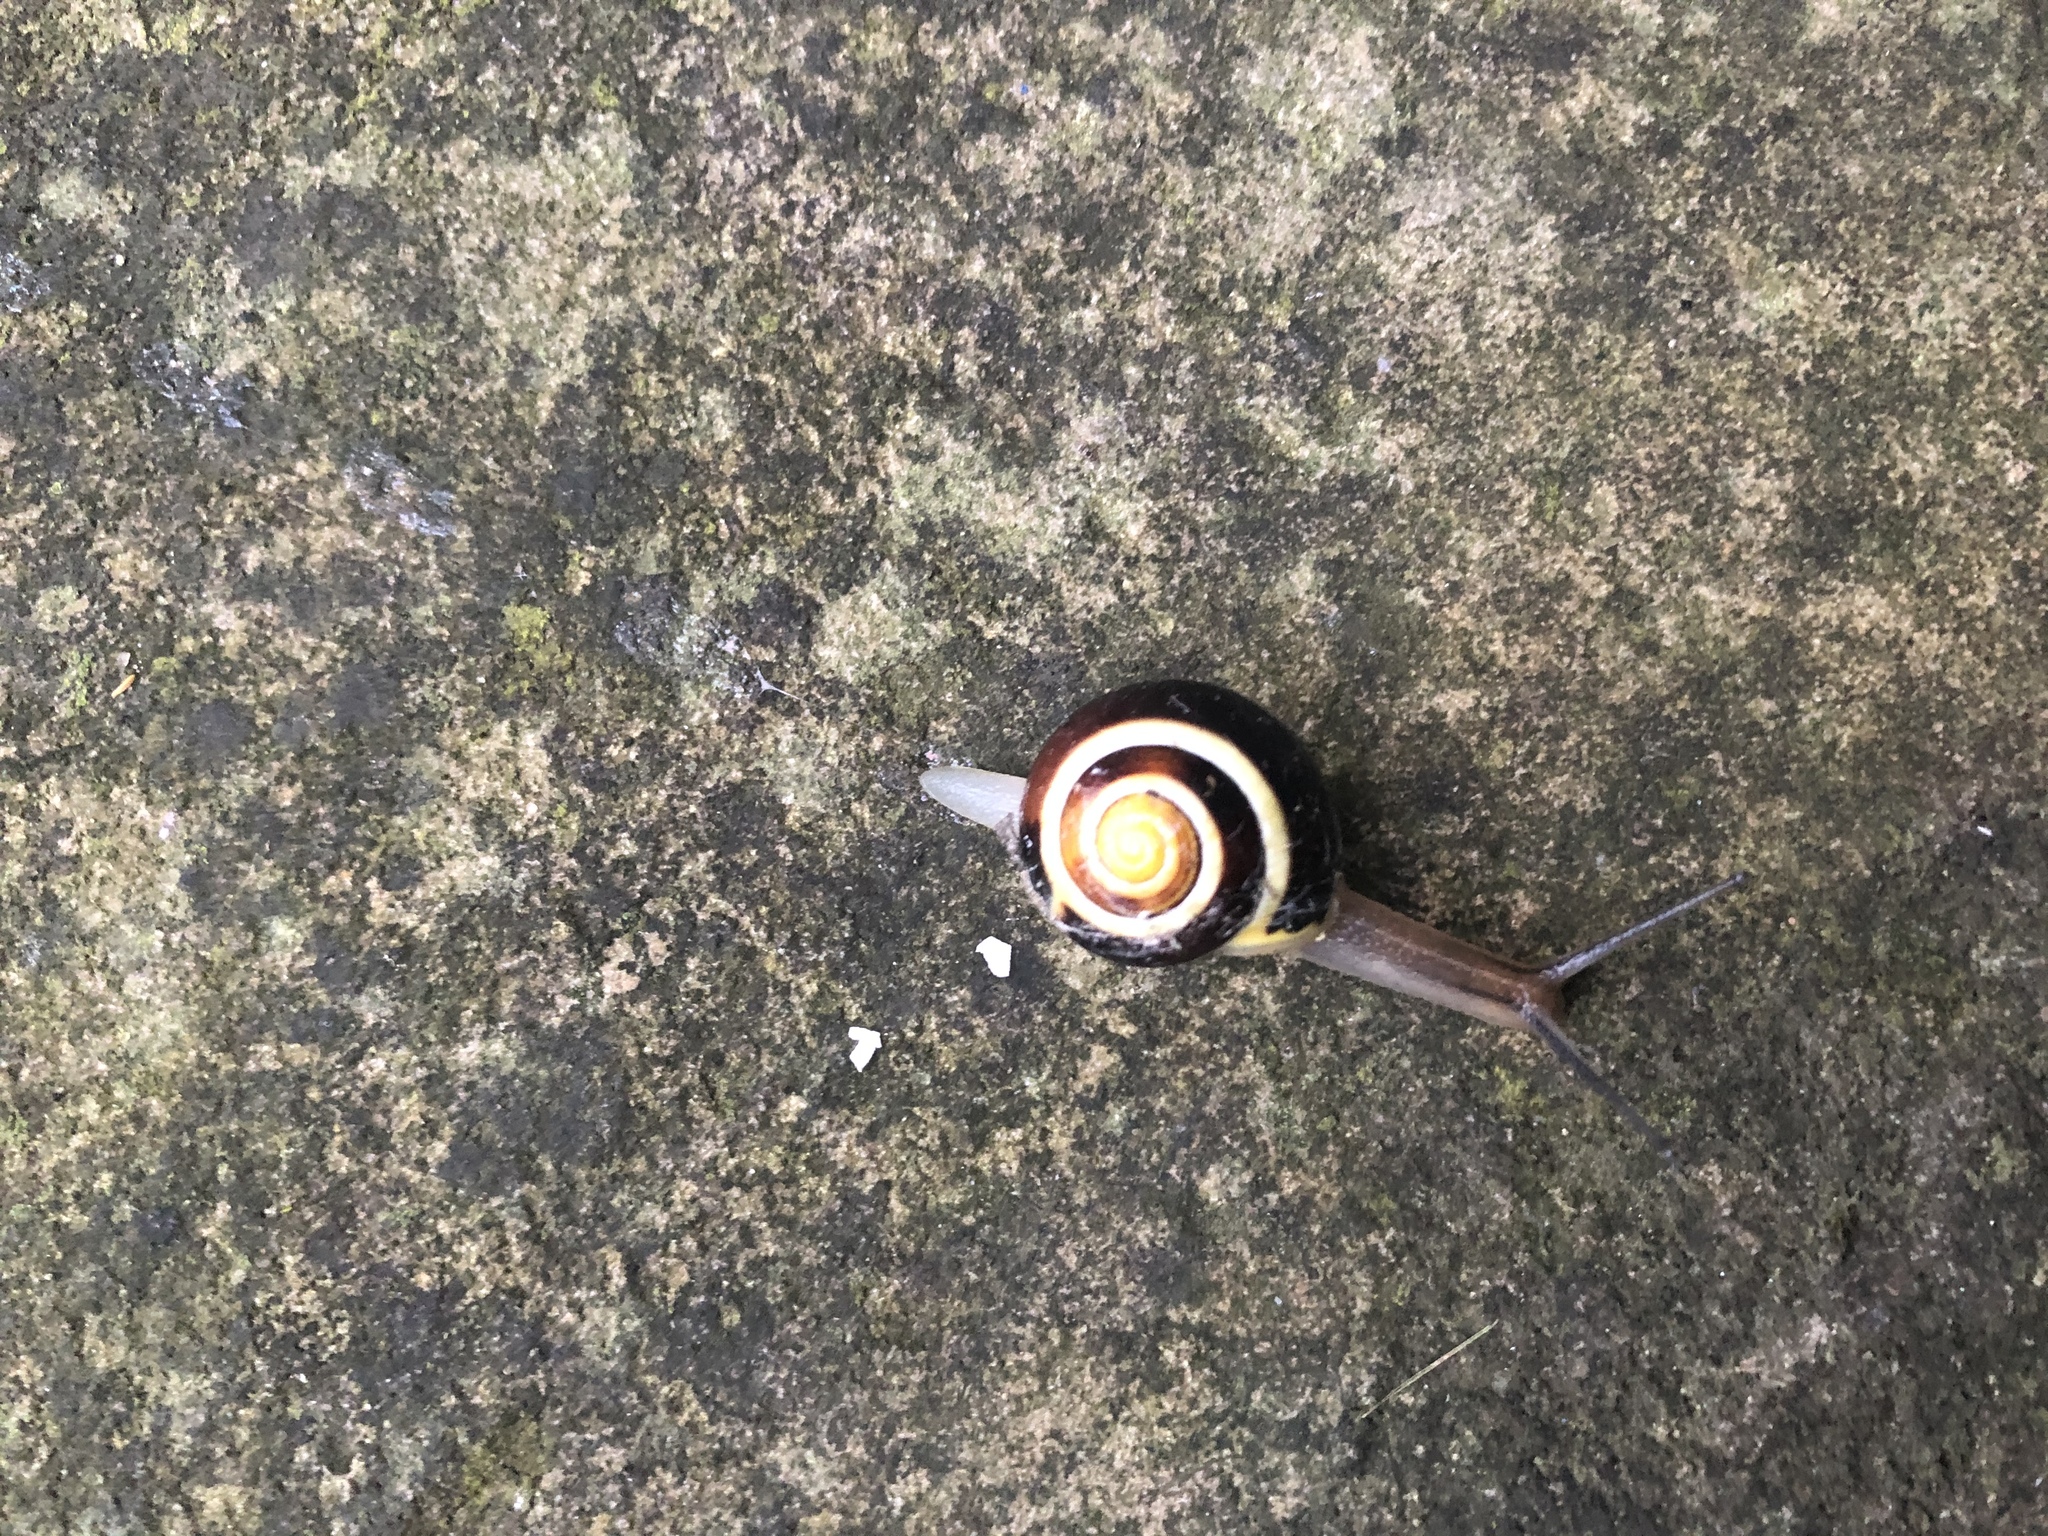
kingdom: Animalia
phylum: Mollusca
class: Gastropoda
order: Stylommatophora
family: Helicidae
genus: Cepaea
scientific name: Cepaea hortensis
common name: White-lip gardensnail
